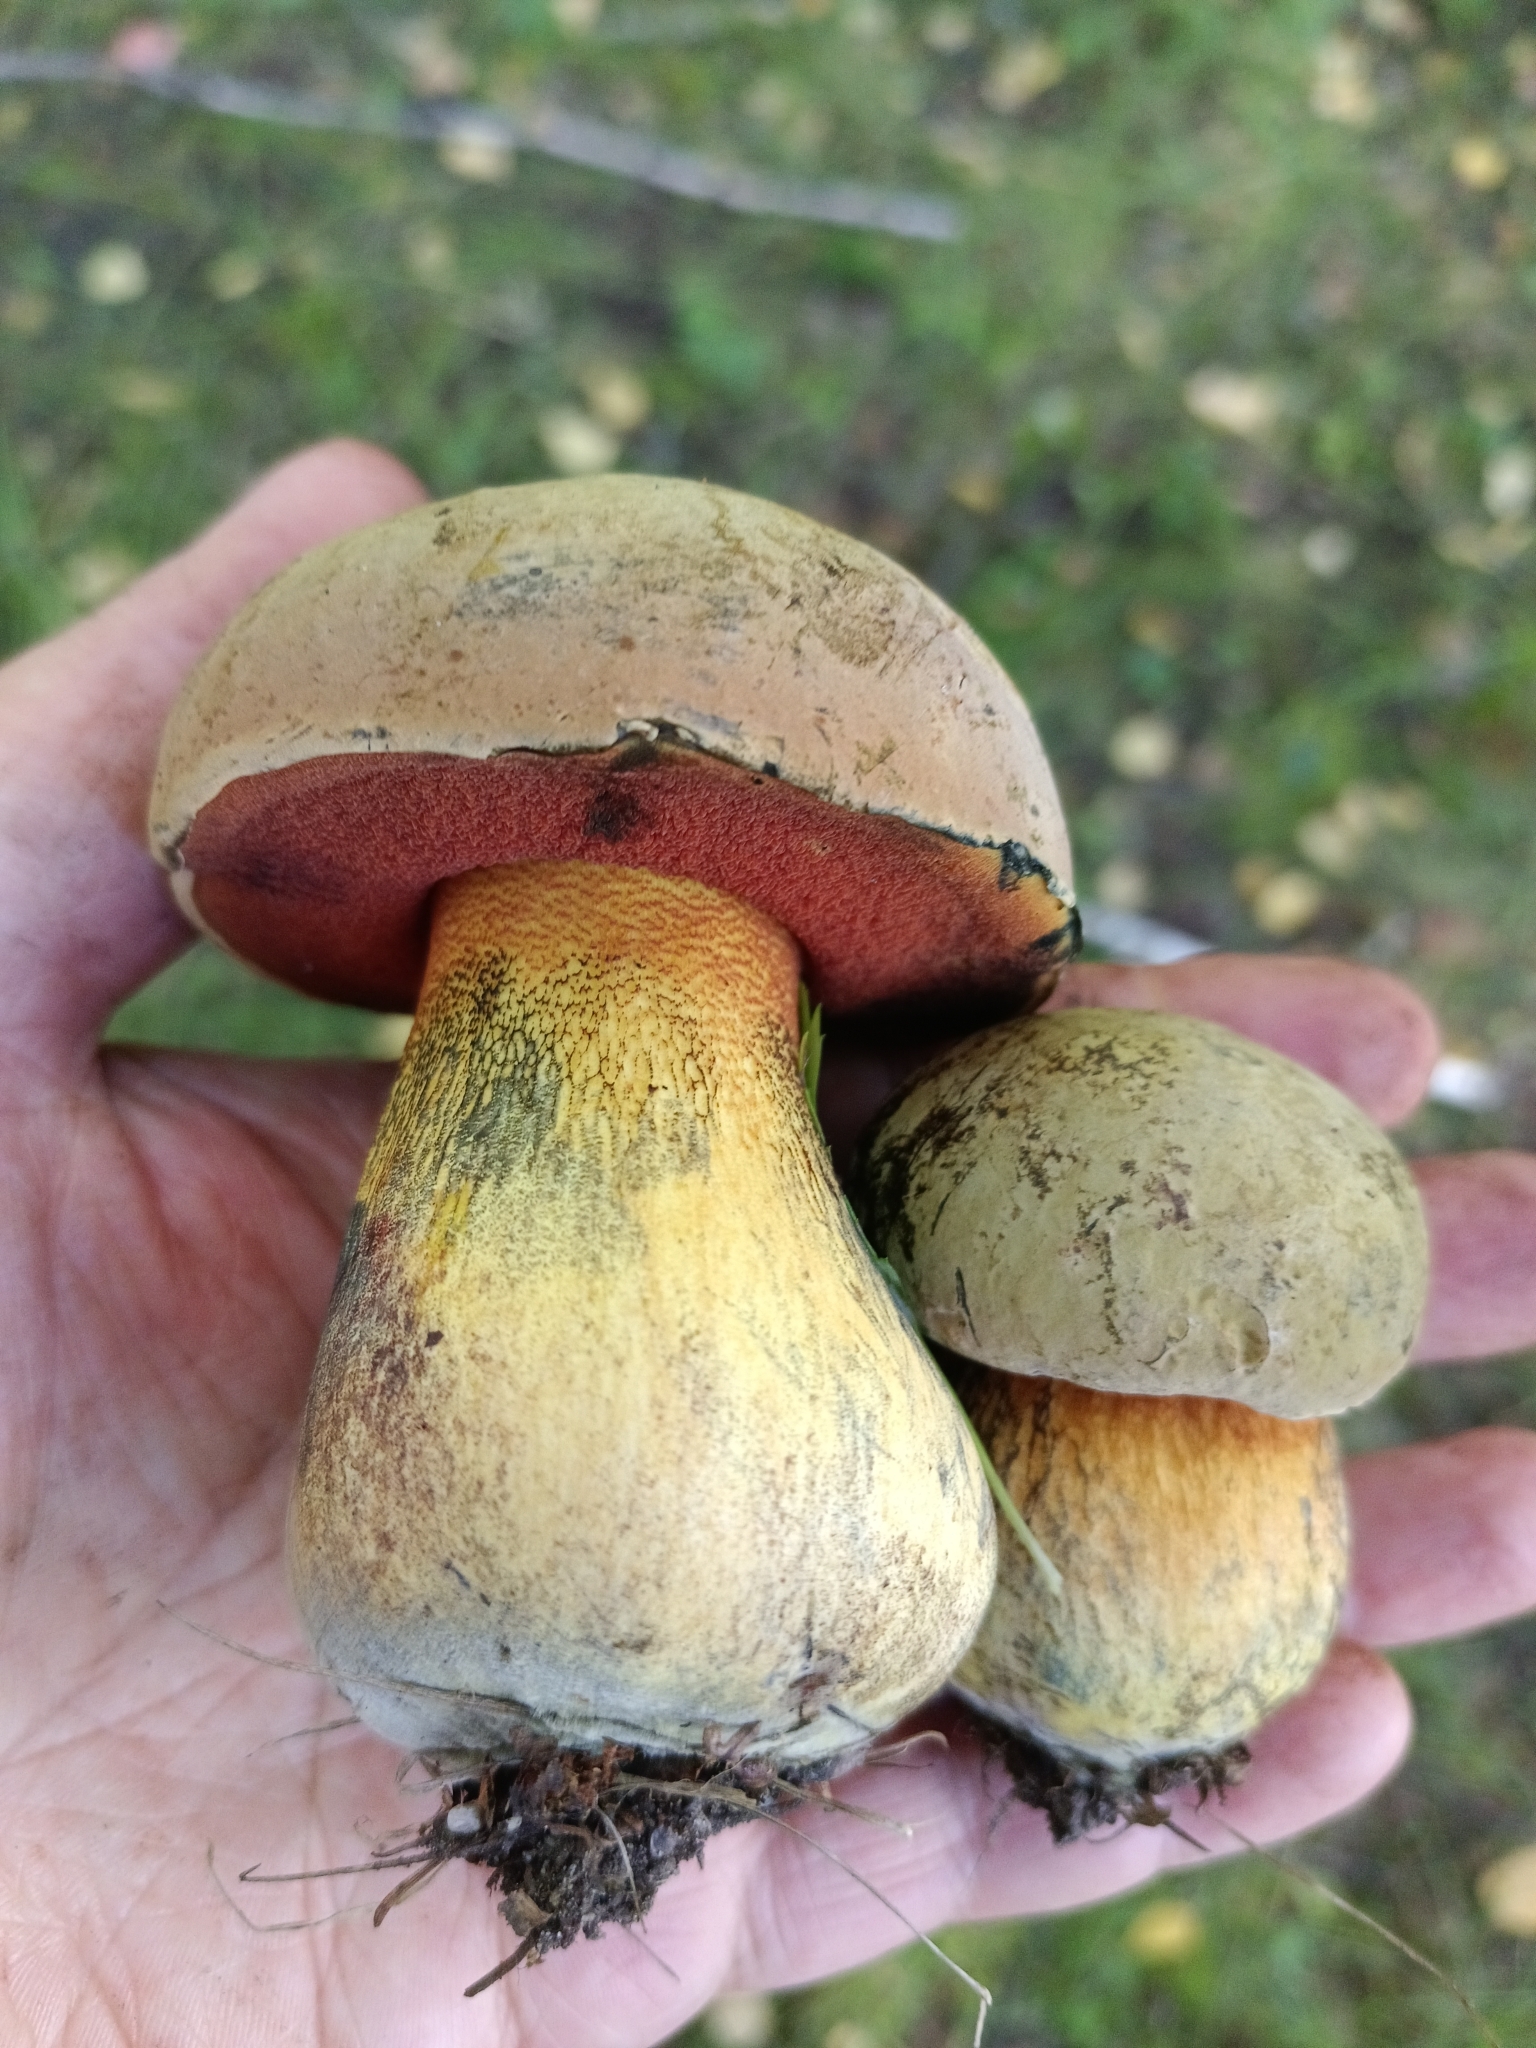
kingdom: Fungi
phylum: Basidiomycota
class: Agaricomycetes
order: Boletales
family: Boletaceae
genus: Suillellus
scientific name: Suillellus luridus
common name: Lurid bolete
